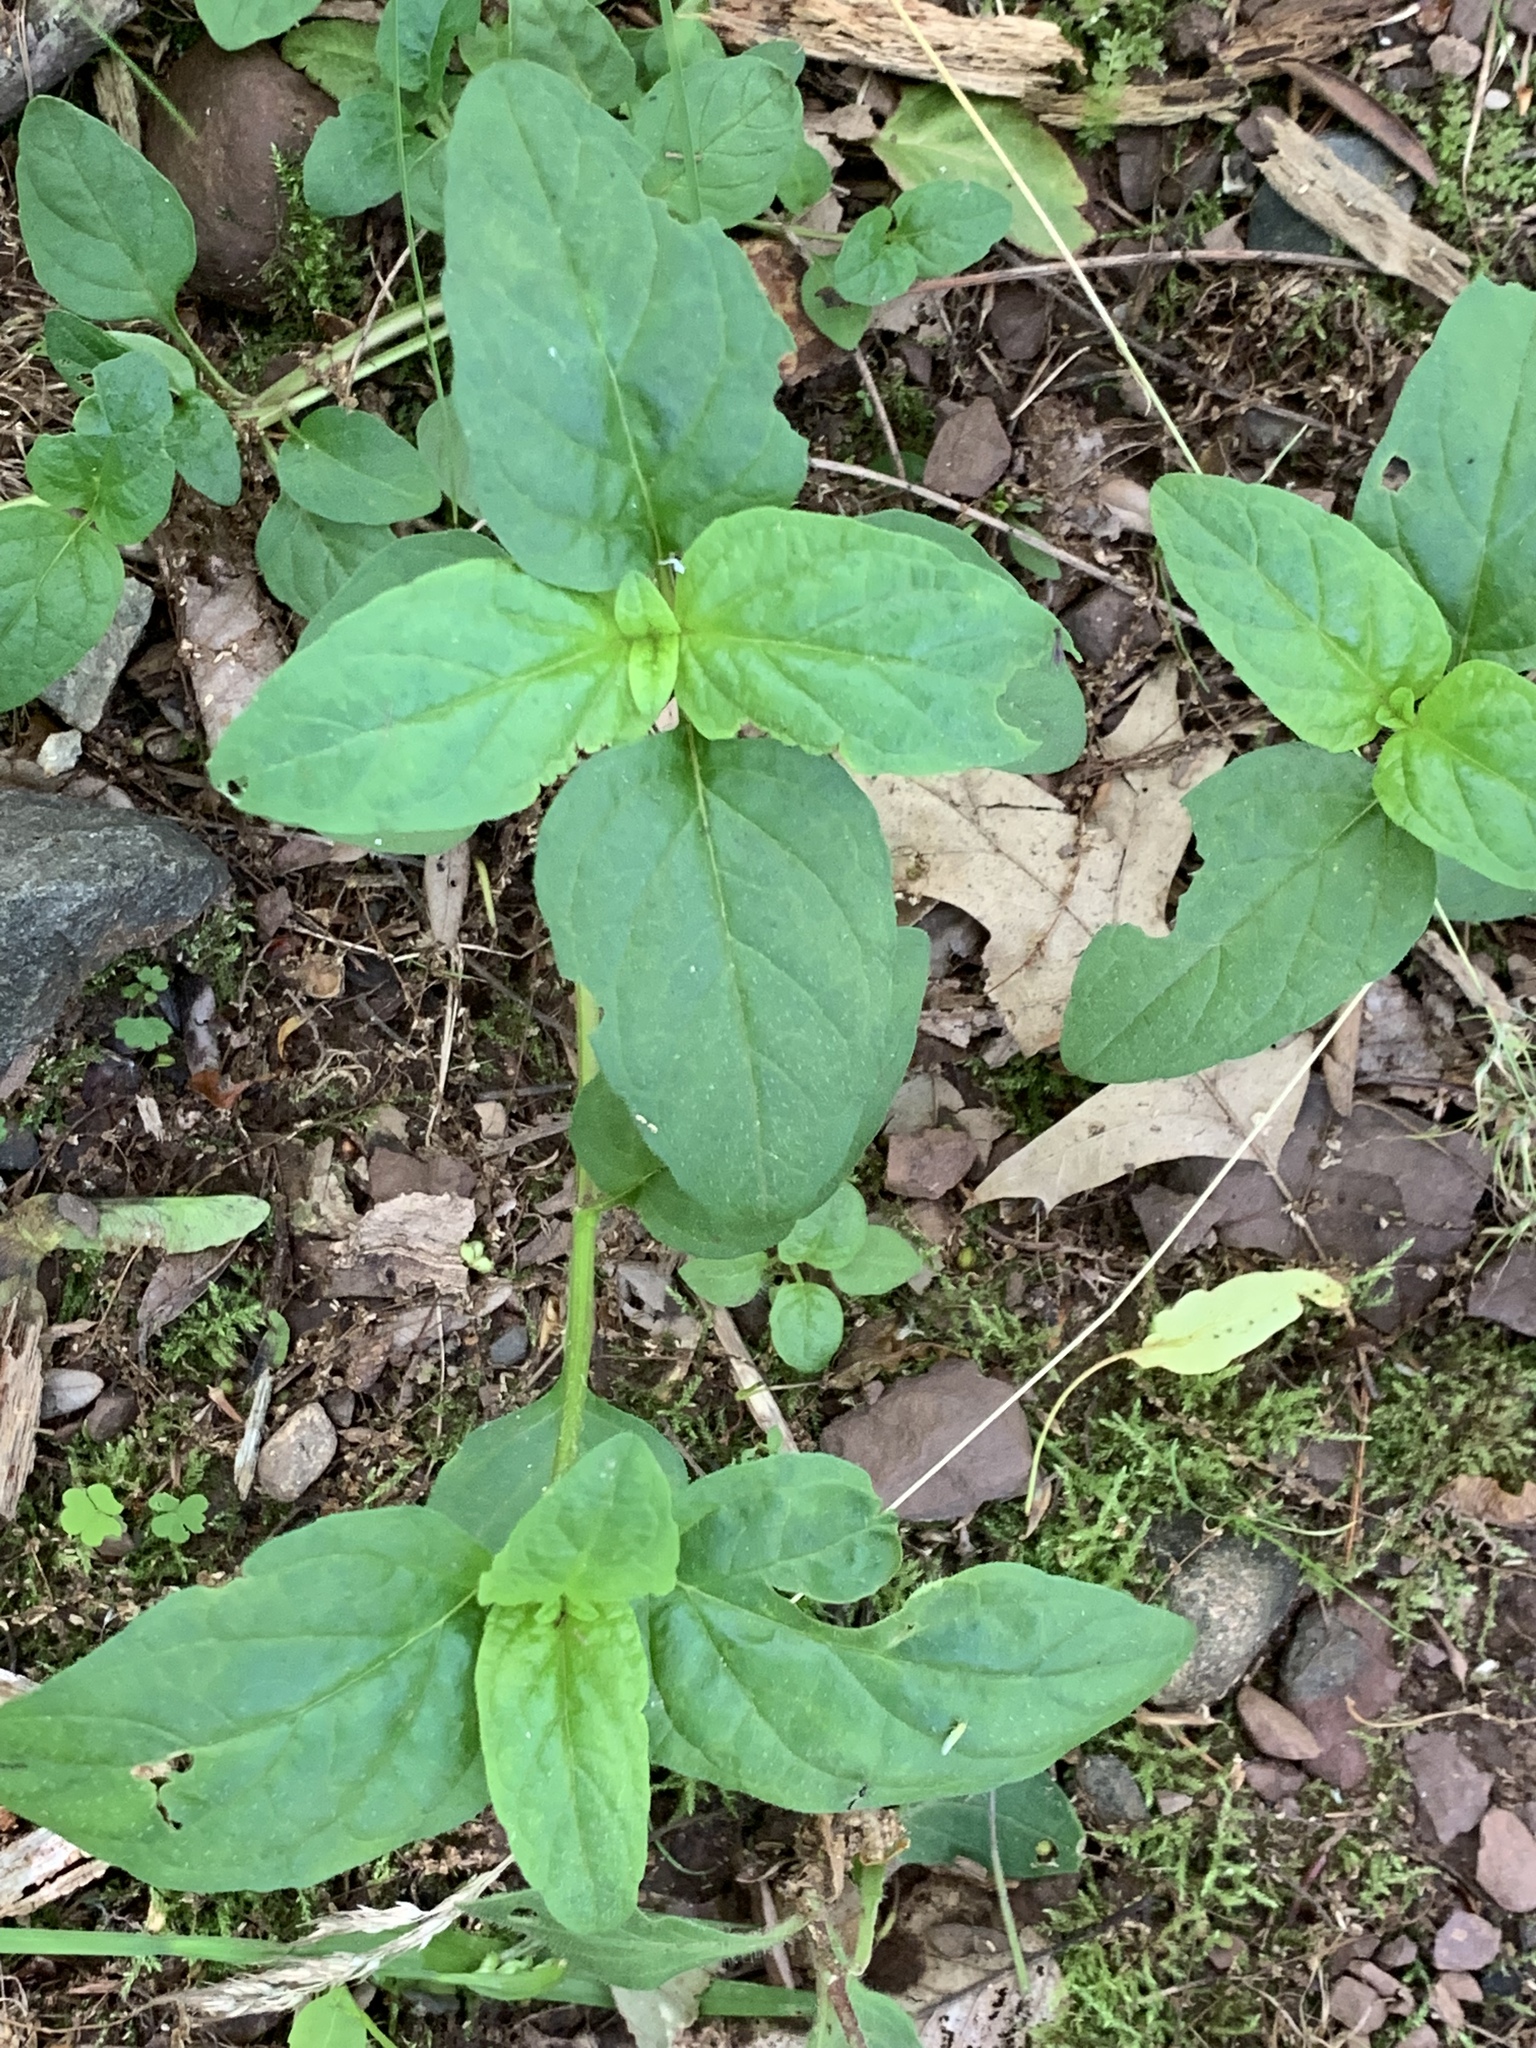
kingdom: Plantae
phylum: Tracheophyta
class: Magnoliopsida
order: Lamiales
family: Lamiaceae
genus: Prunella
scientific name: Prunella vulgaris
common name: Heal-all
